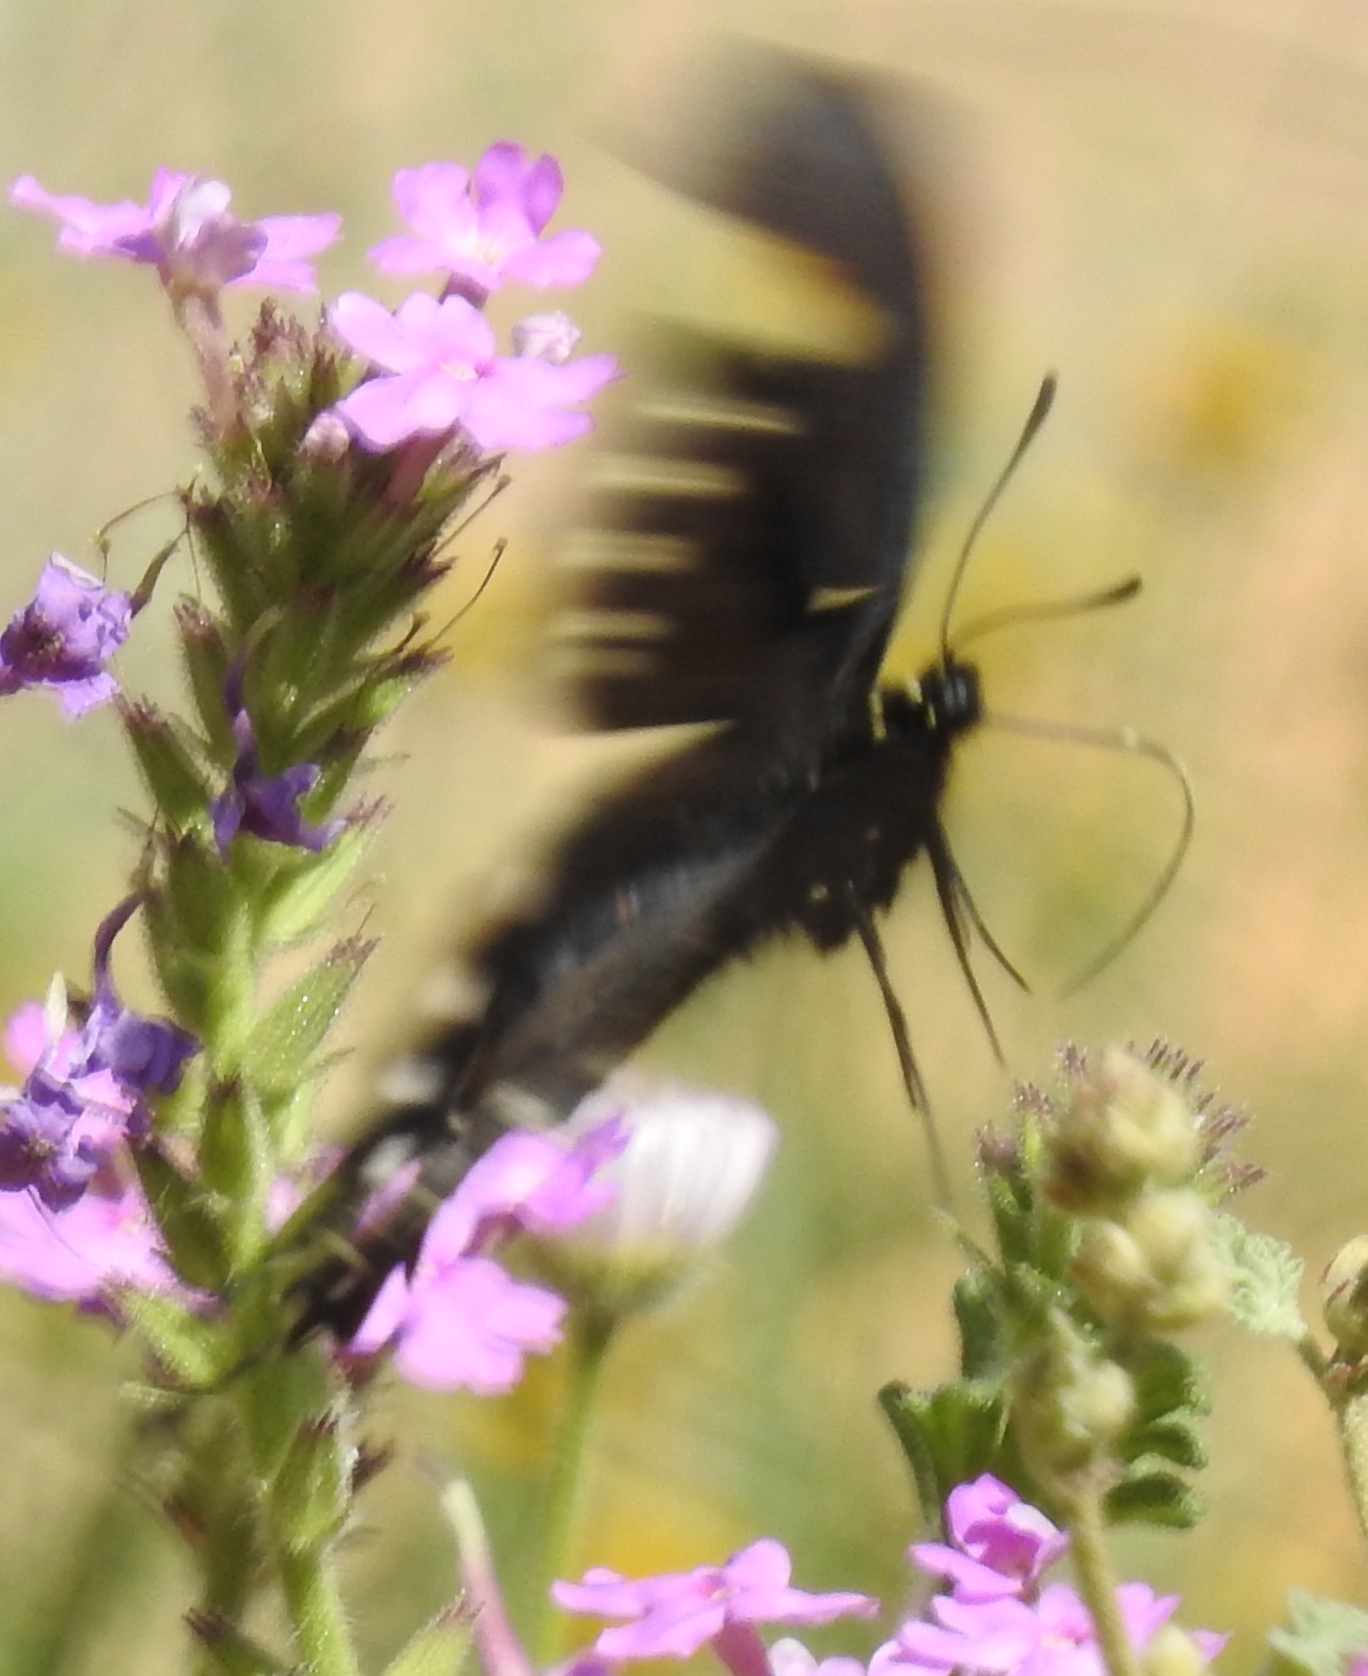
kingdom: Animalia
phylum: Arthropoda
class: Insecta
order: Lepidoptera
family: Papilionidae
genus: Battus
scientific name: Battus philenor
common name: Pipevine swallowtail
